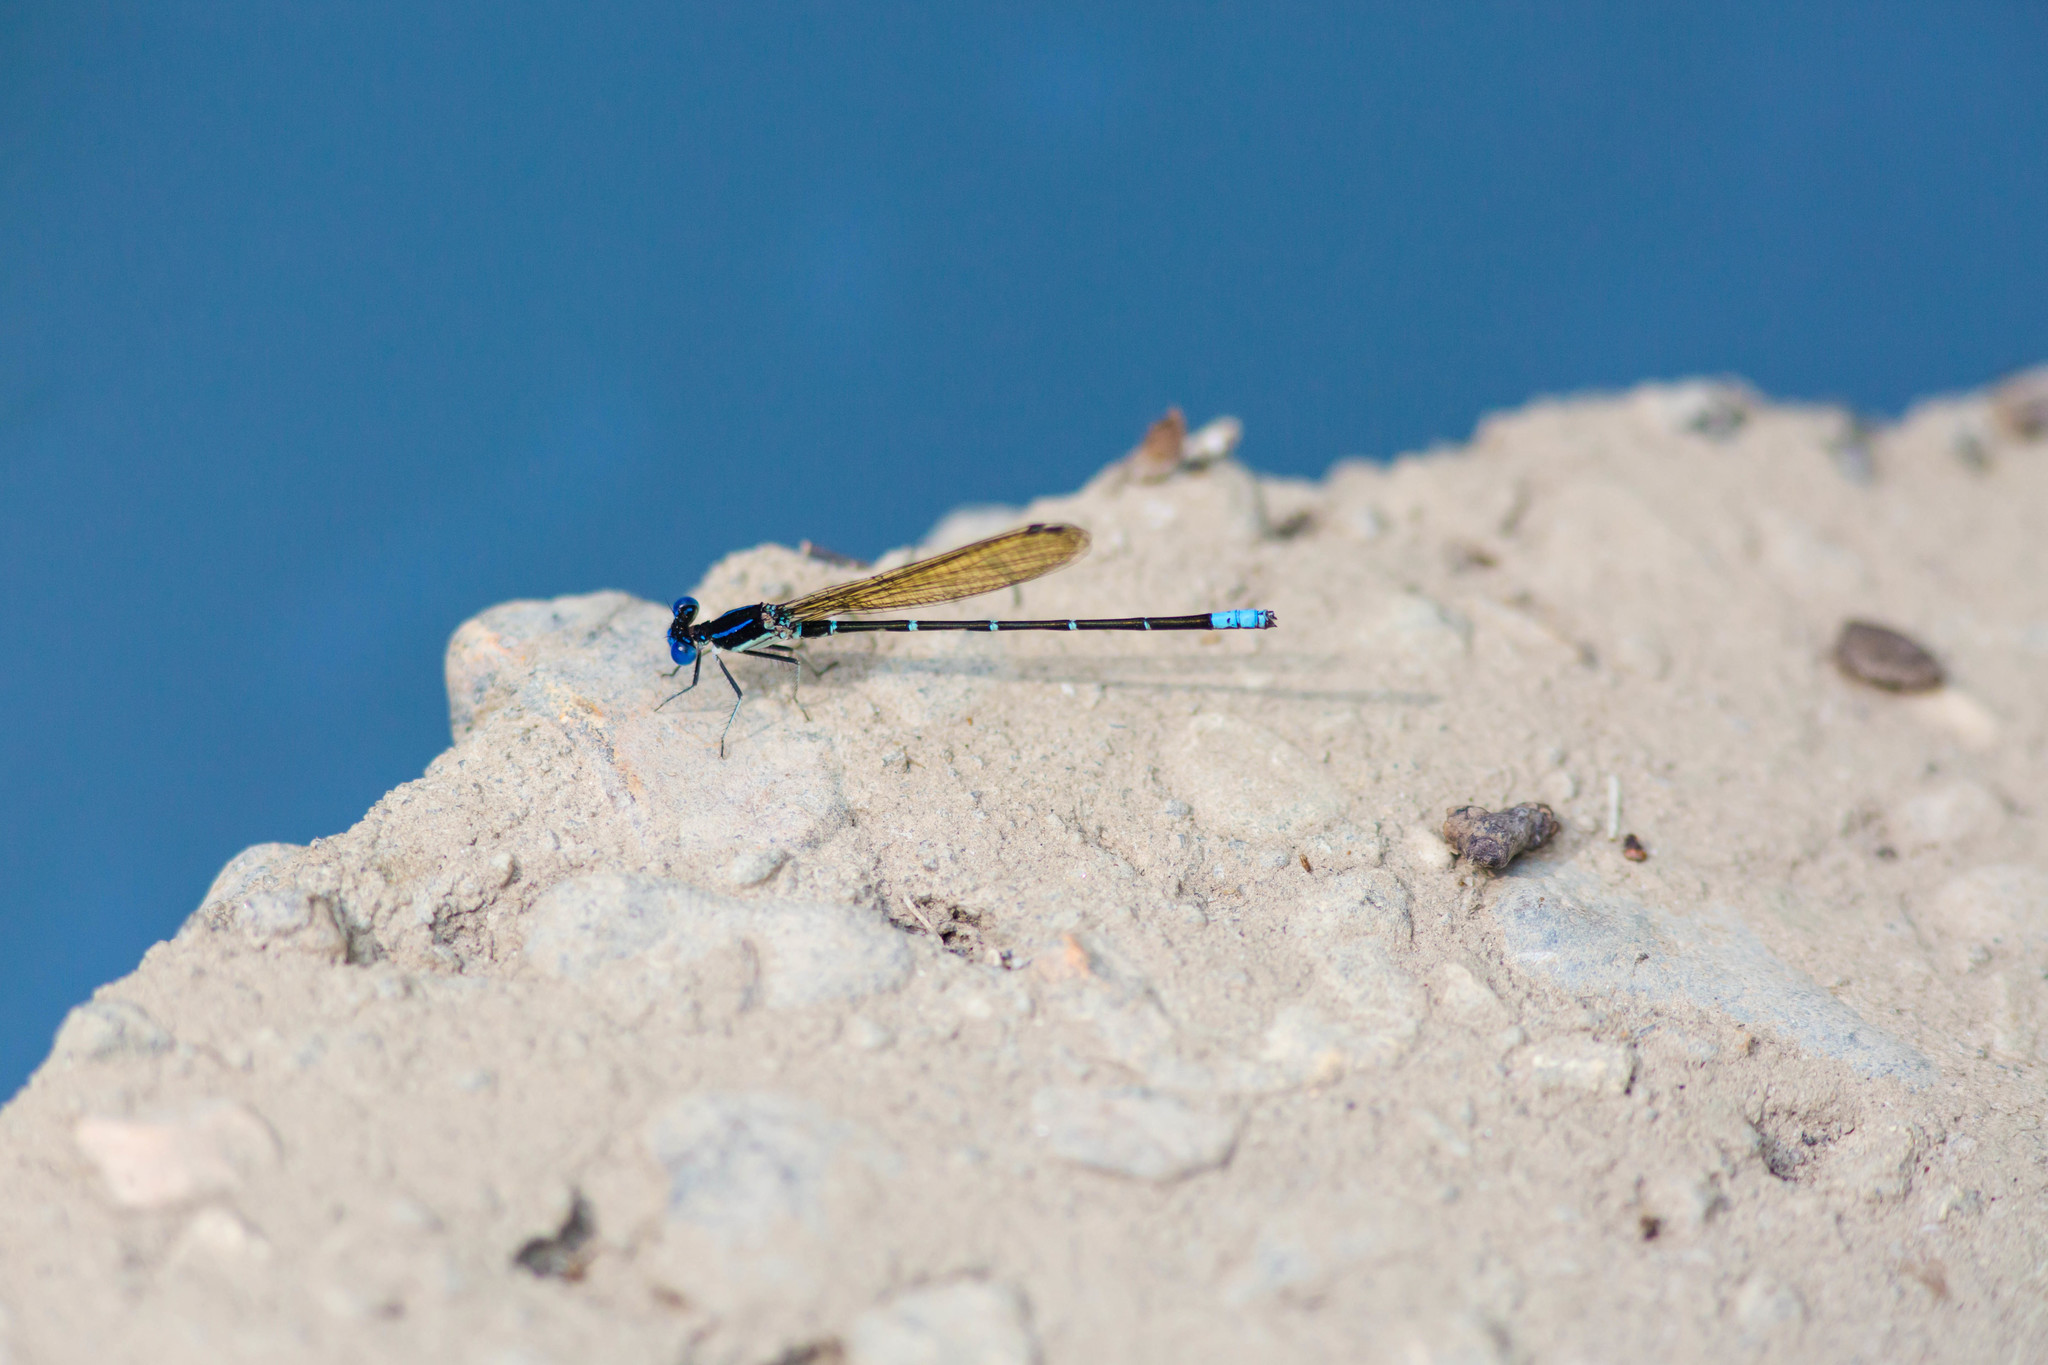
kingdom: Animalia
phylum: Arthropoda
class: Insecta
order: Odonata
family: Coenagrionidae
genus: Argia
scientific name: Argia sedula
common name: Blue-ringed dancer
